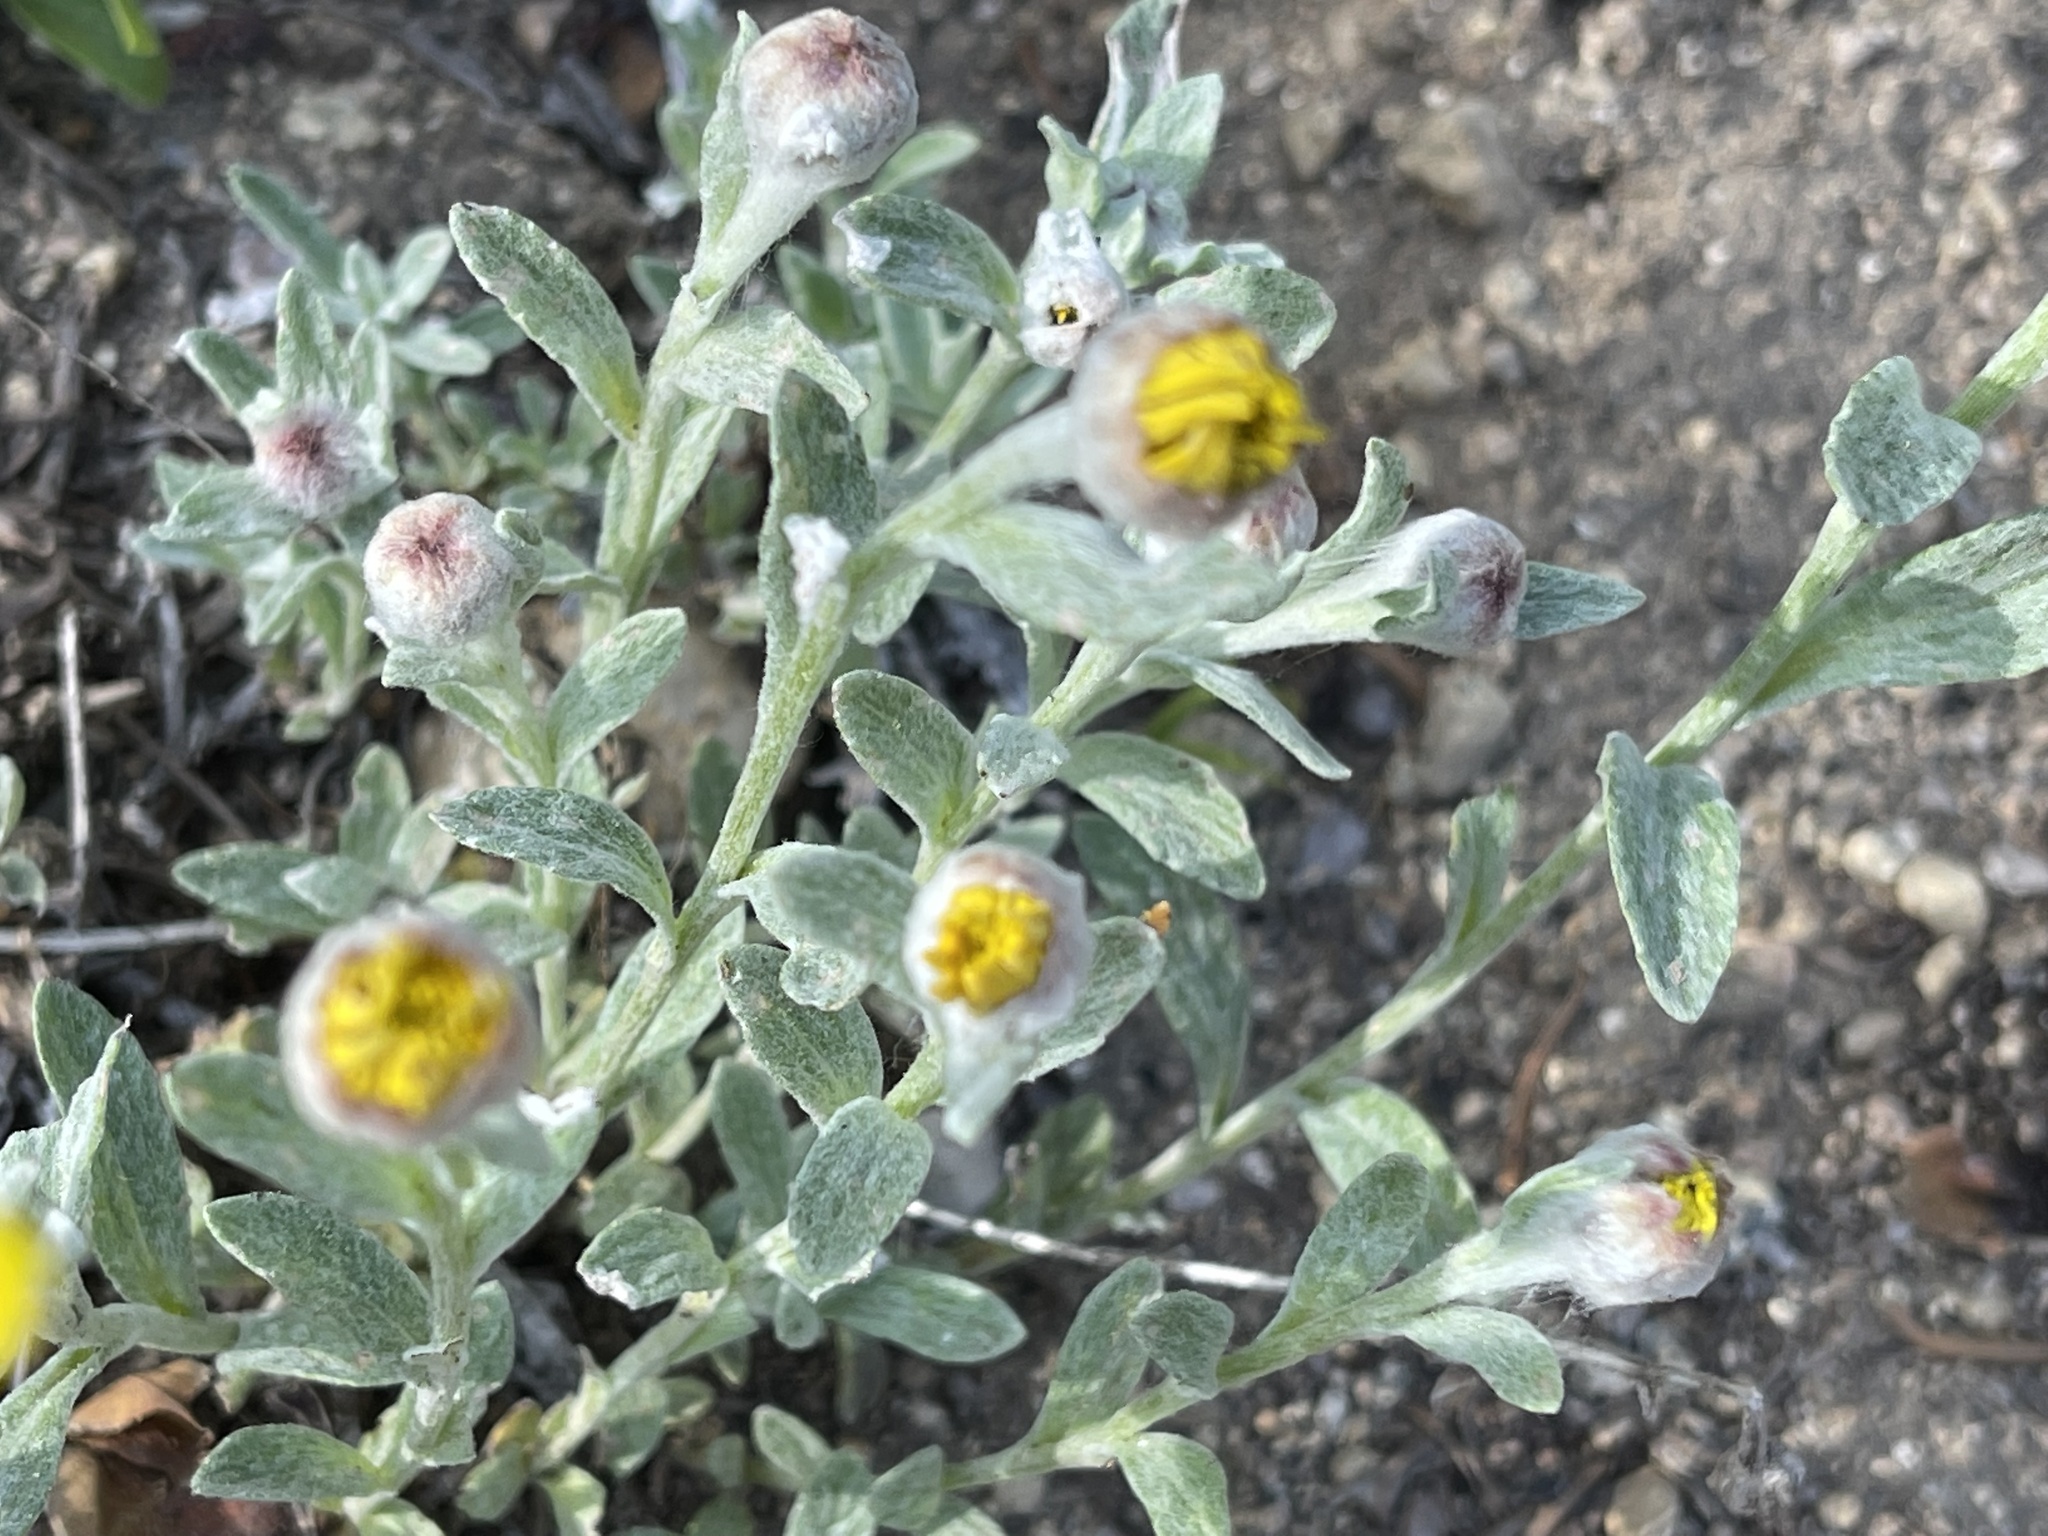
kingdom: Plantae
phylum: Tracheophyta
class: Magnoliopsida
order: Asterales
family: Asteraceae
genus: Eriophyllum
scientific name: Eriophyllum lanatum
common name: Common woolly-sunflower
